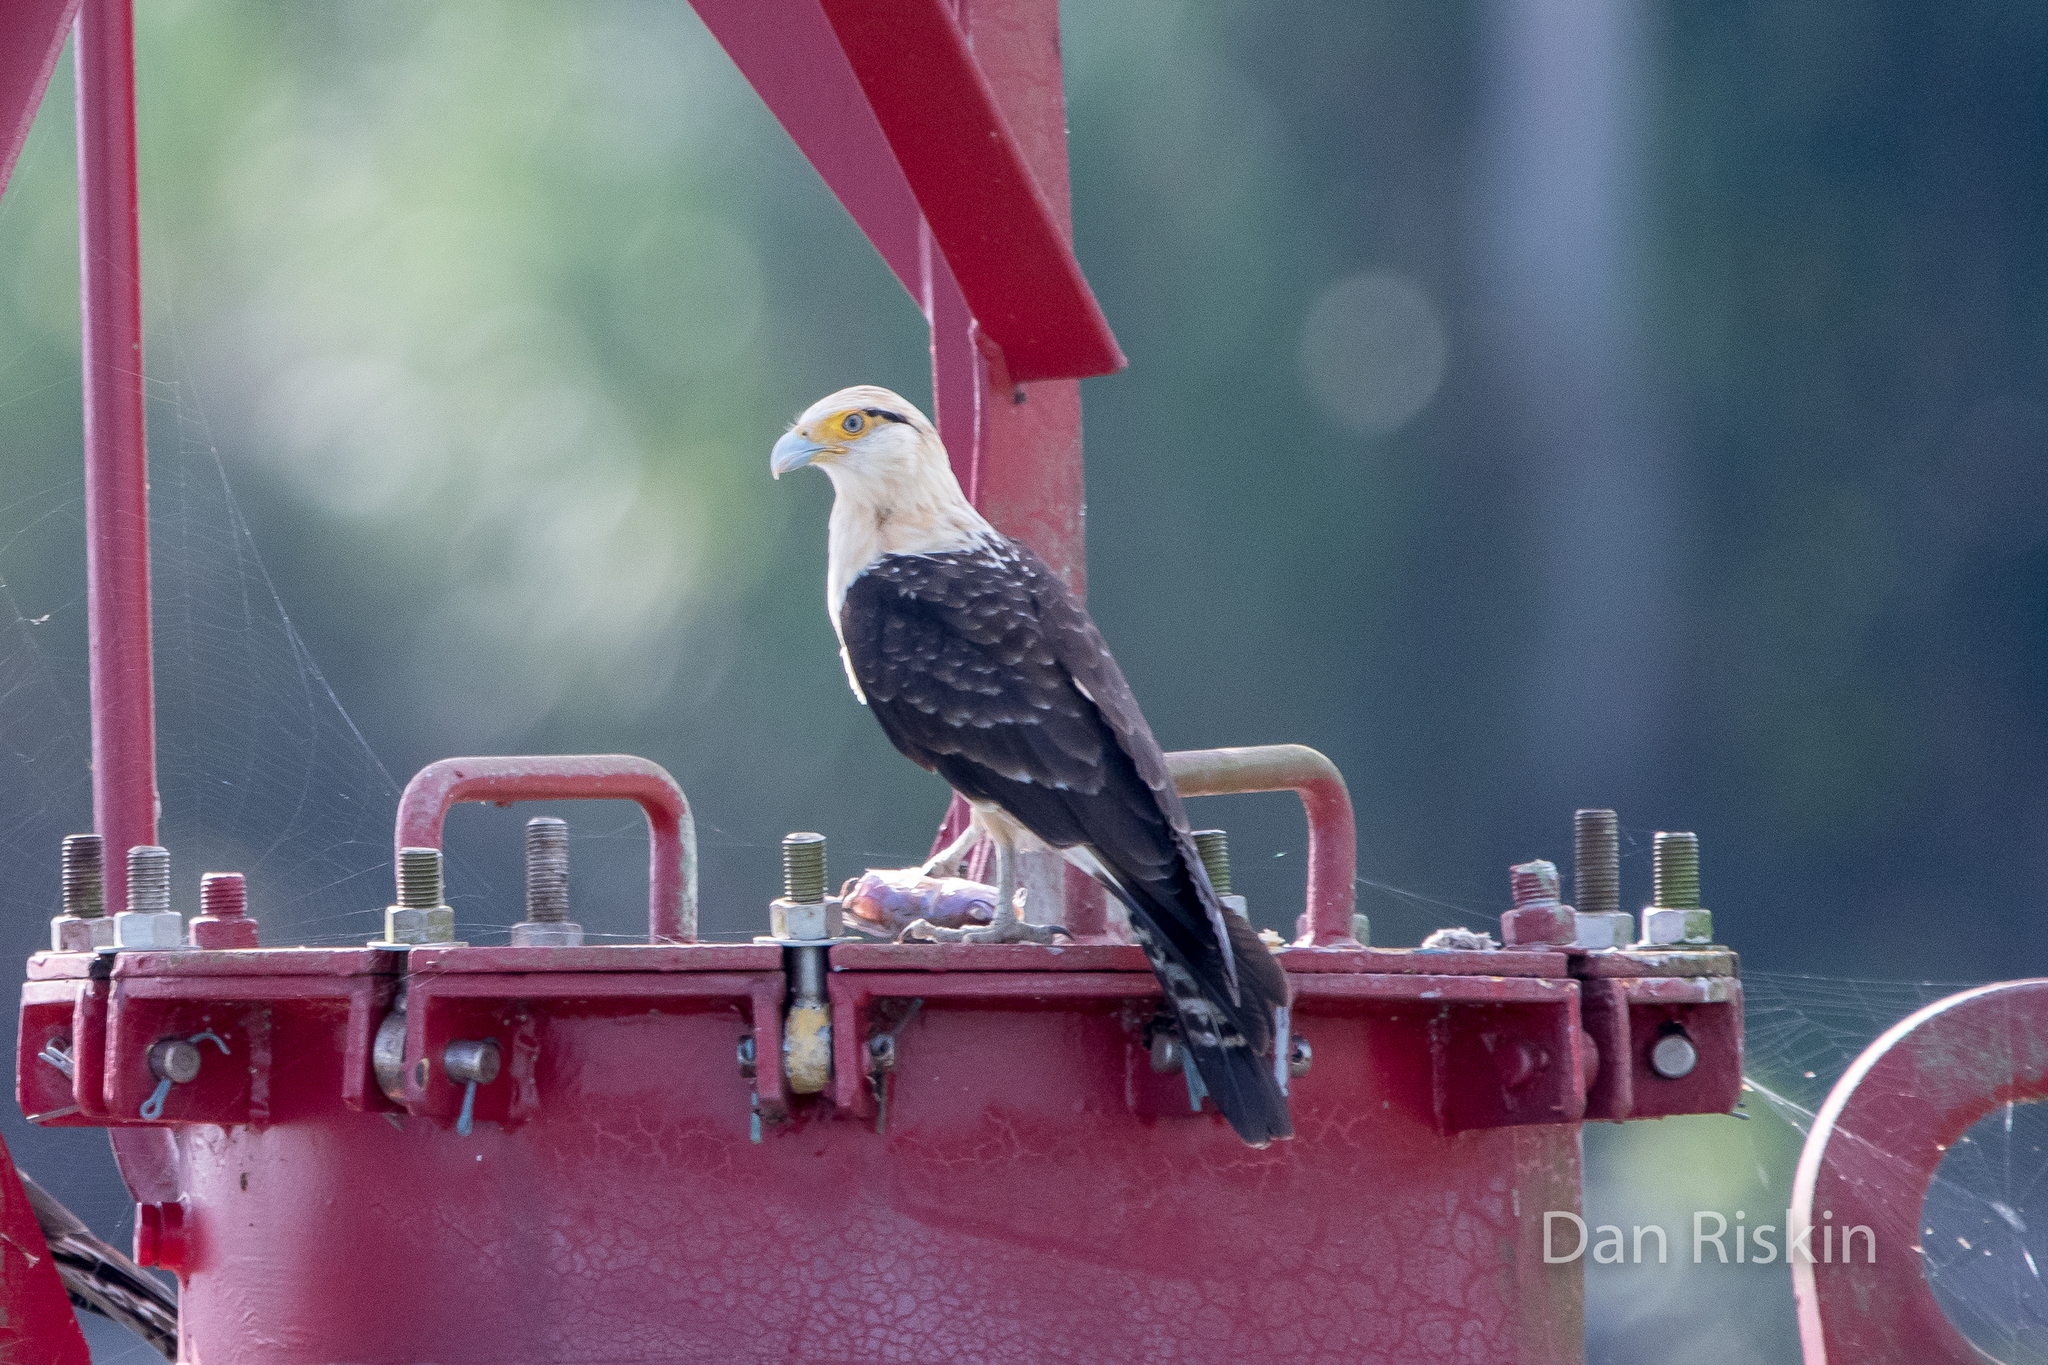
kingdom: Animalia
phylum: Chordata
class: Aves
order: Falconiformes
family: Falconidae
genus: Daptrius
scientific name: Daptrius
